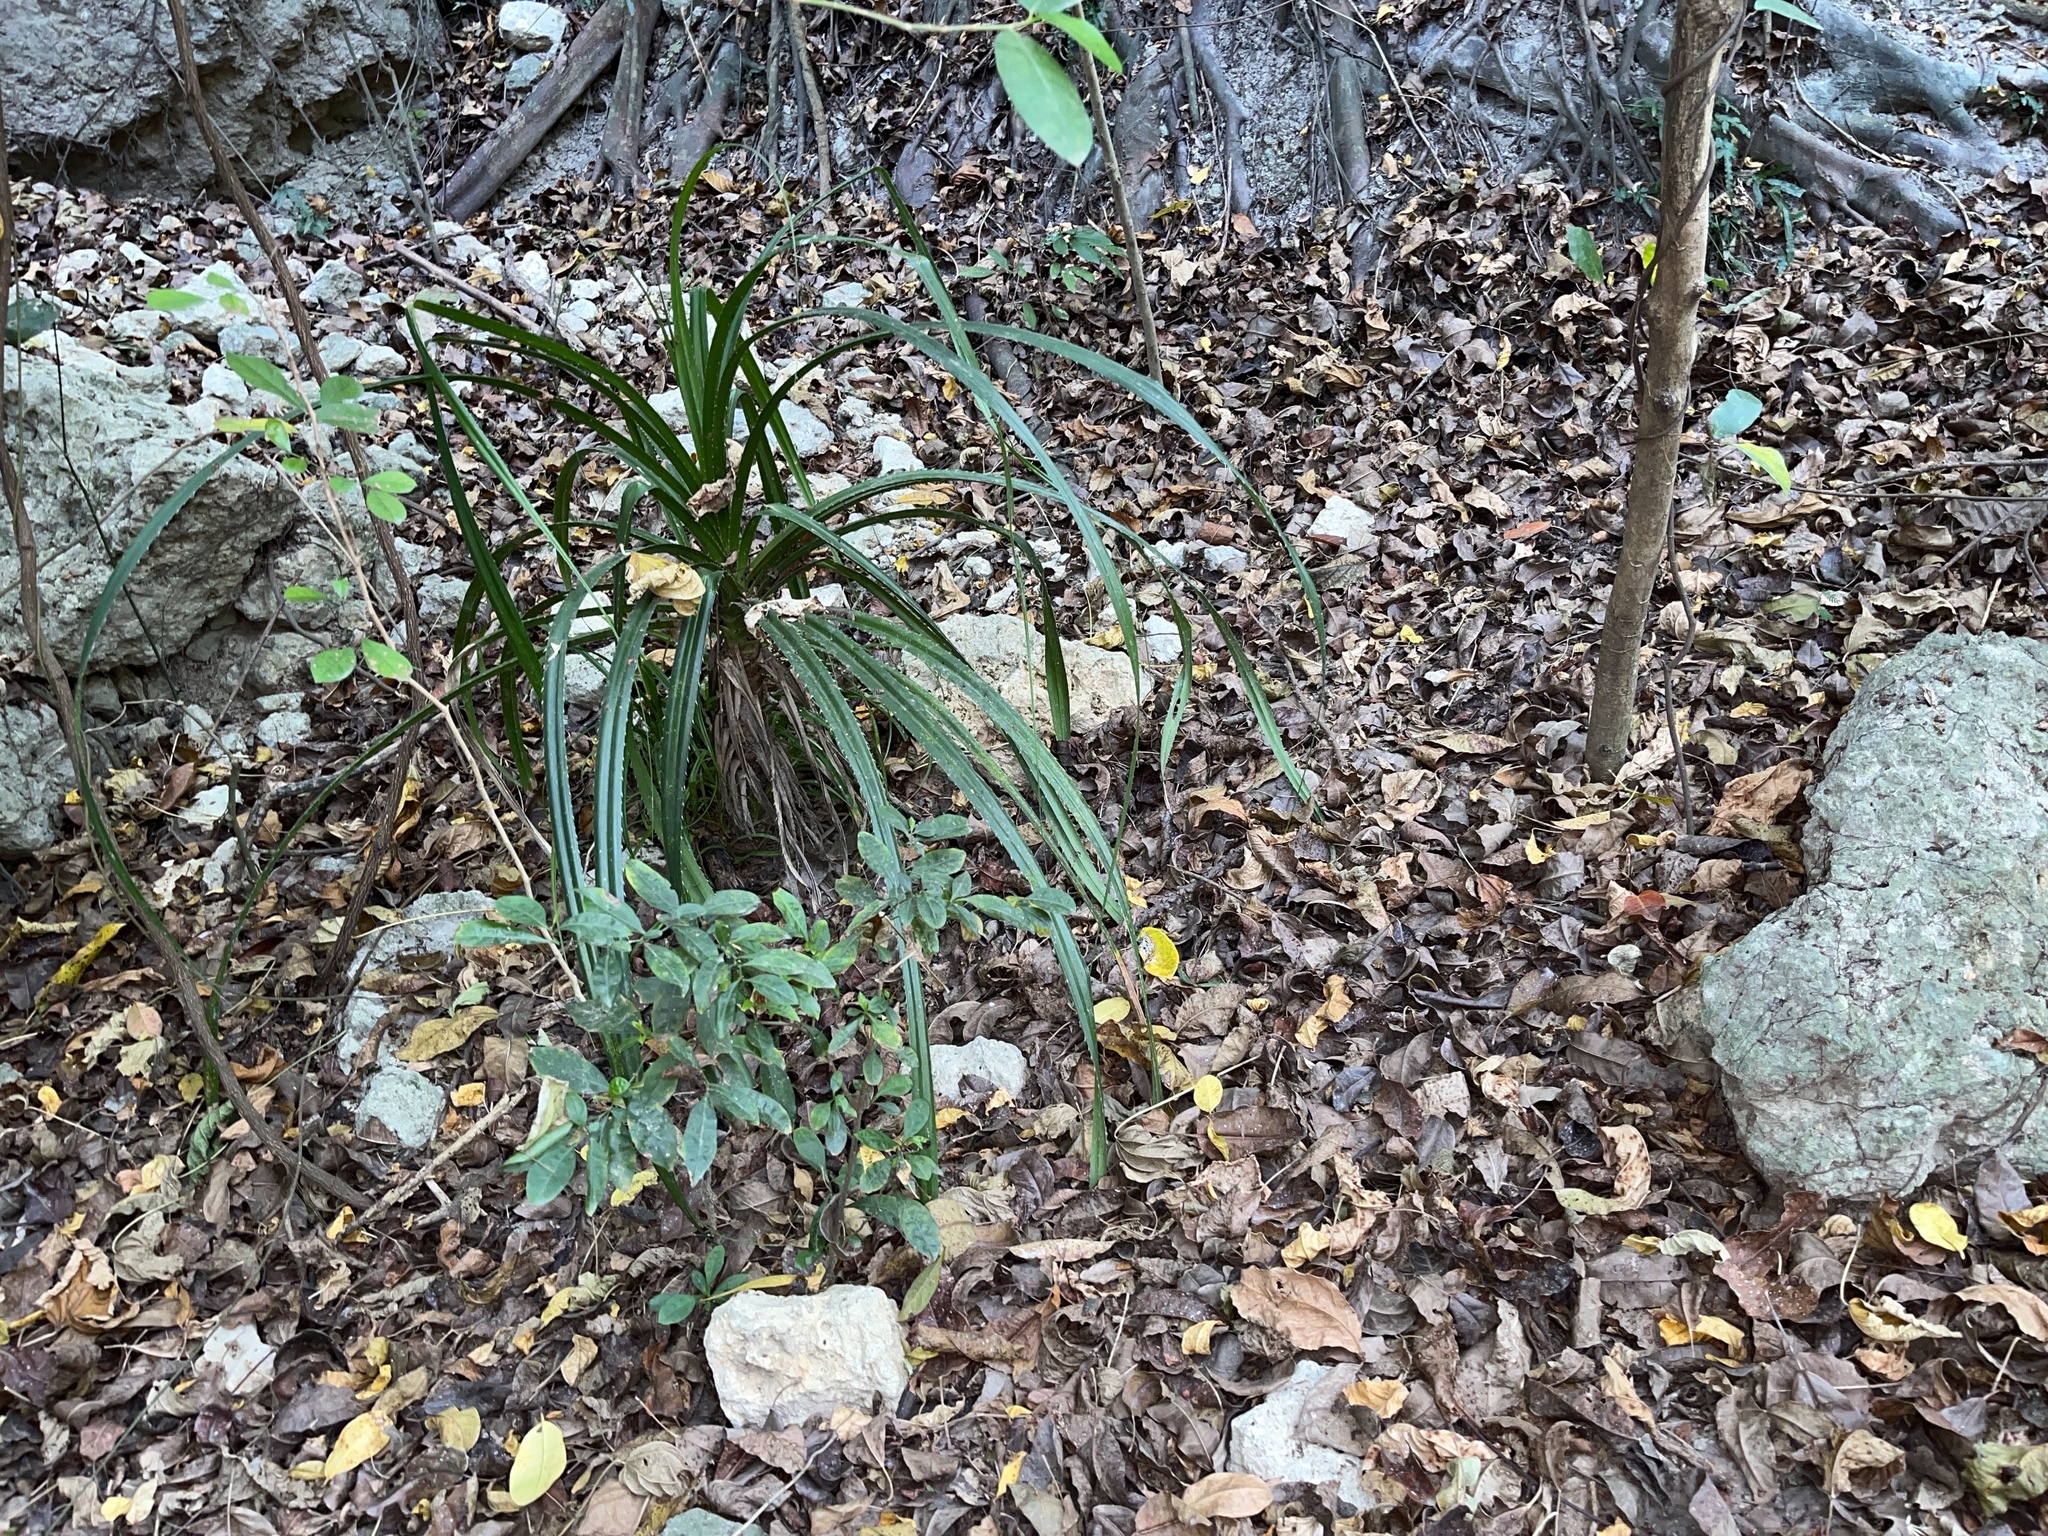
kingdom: Plantae
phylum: Tracheophyta
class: Liliopsida
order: Pandanales
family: Pandanaceae
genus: Pandanus
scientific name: Pandanus odorifer
